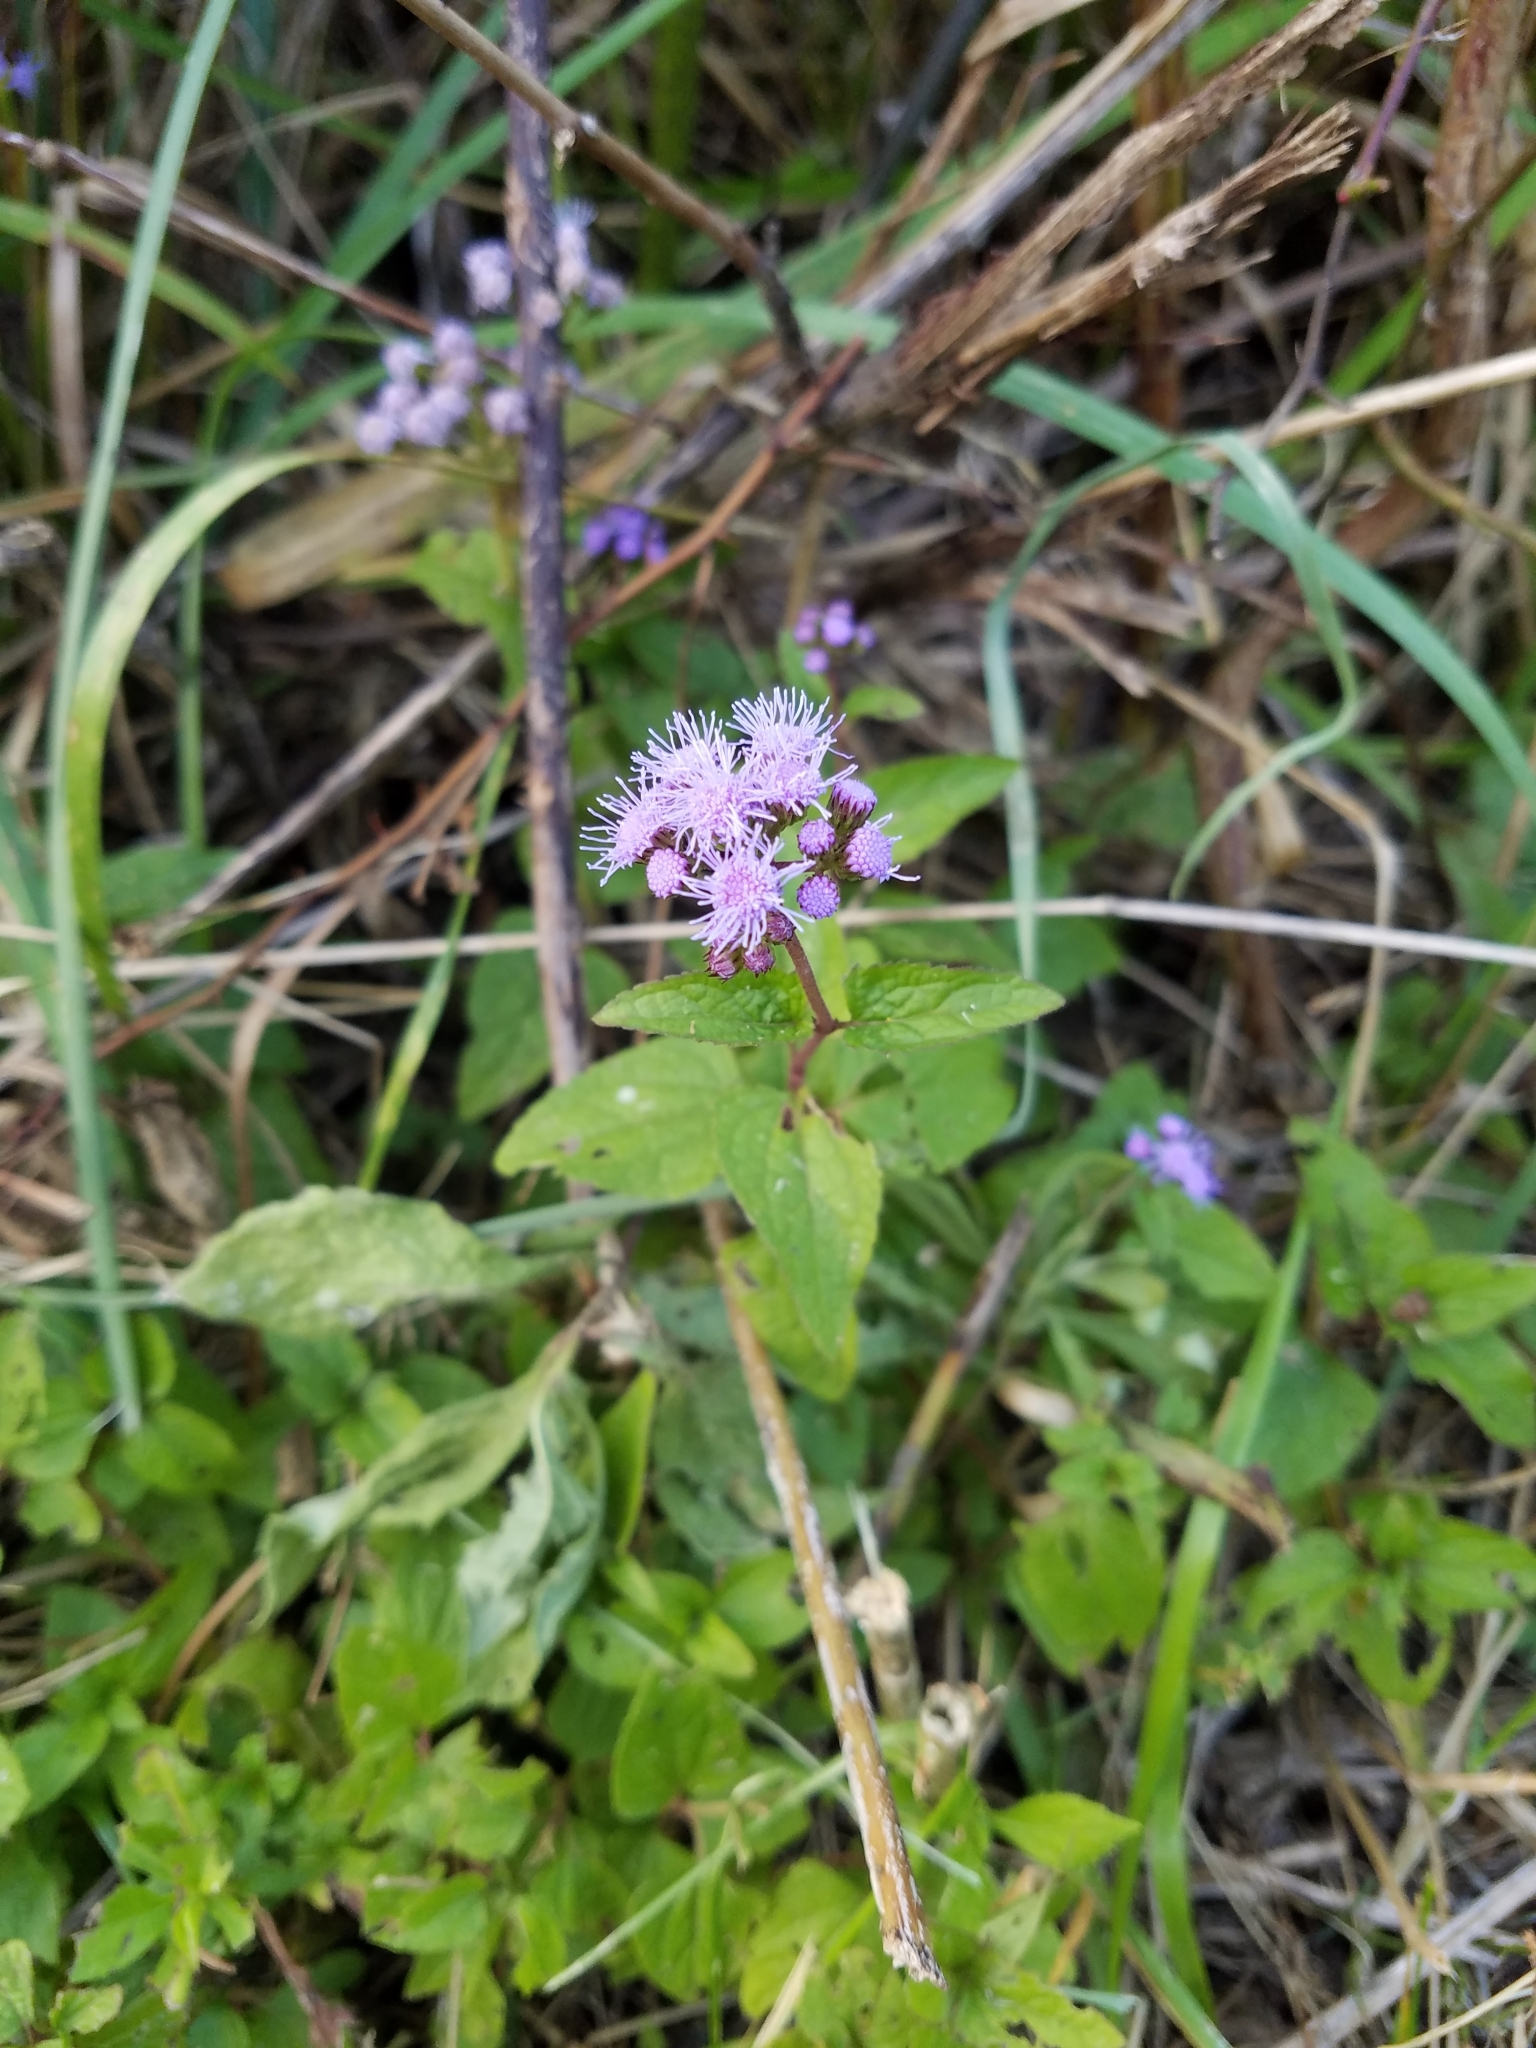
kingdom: Plantae
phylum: Tracheophyta
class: Magnoliopsida
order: Asterales
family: Asteraceae
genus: Conoclinium
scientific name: Conoclinium coelestinum
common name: Blue mistflower
